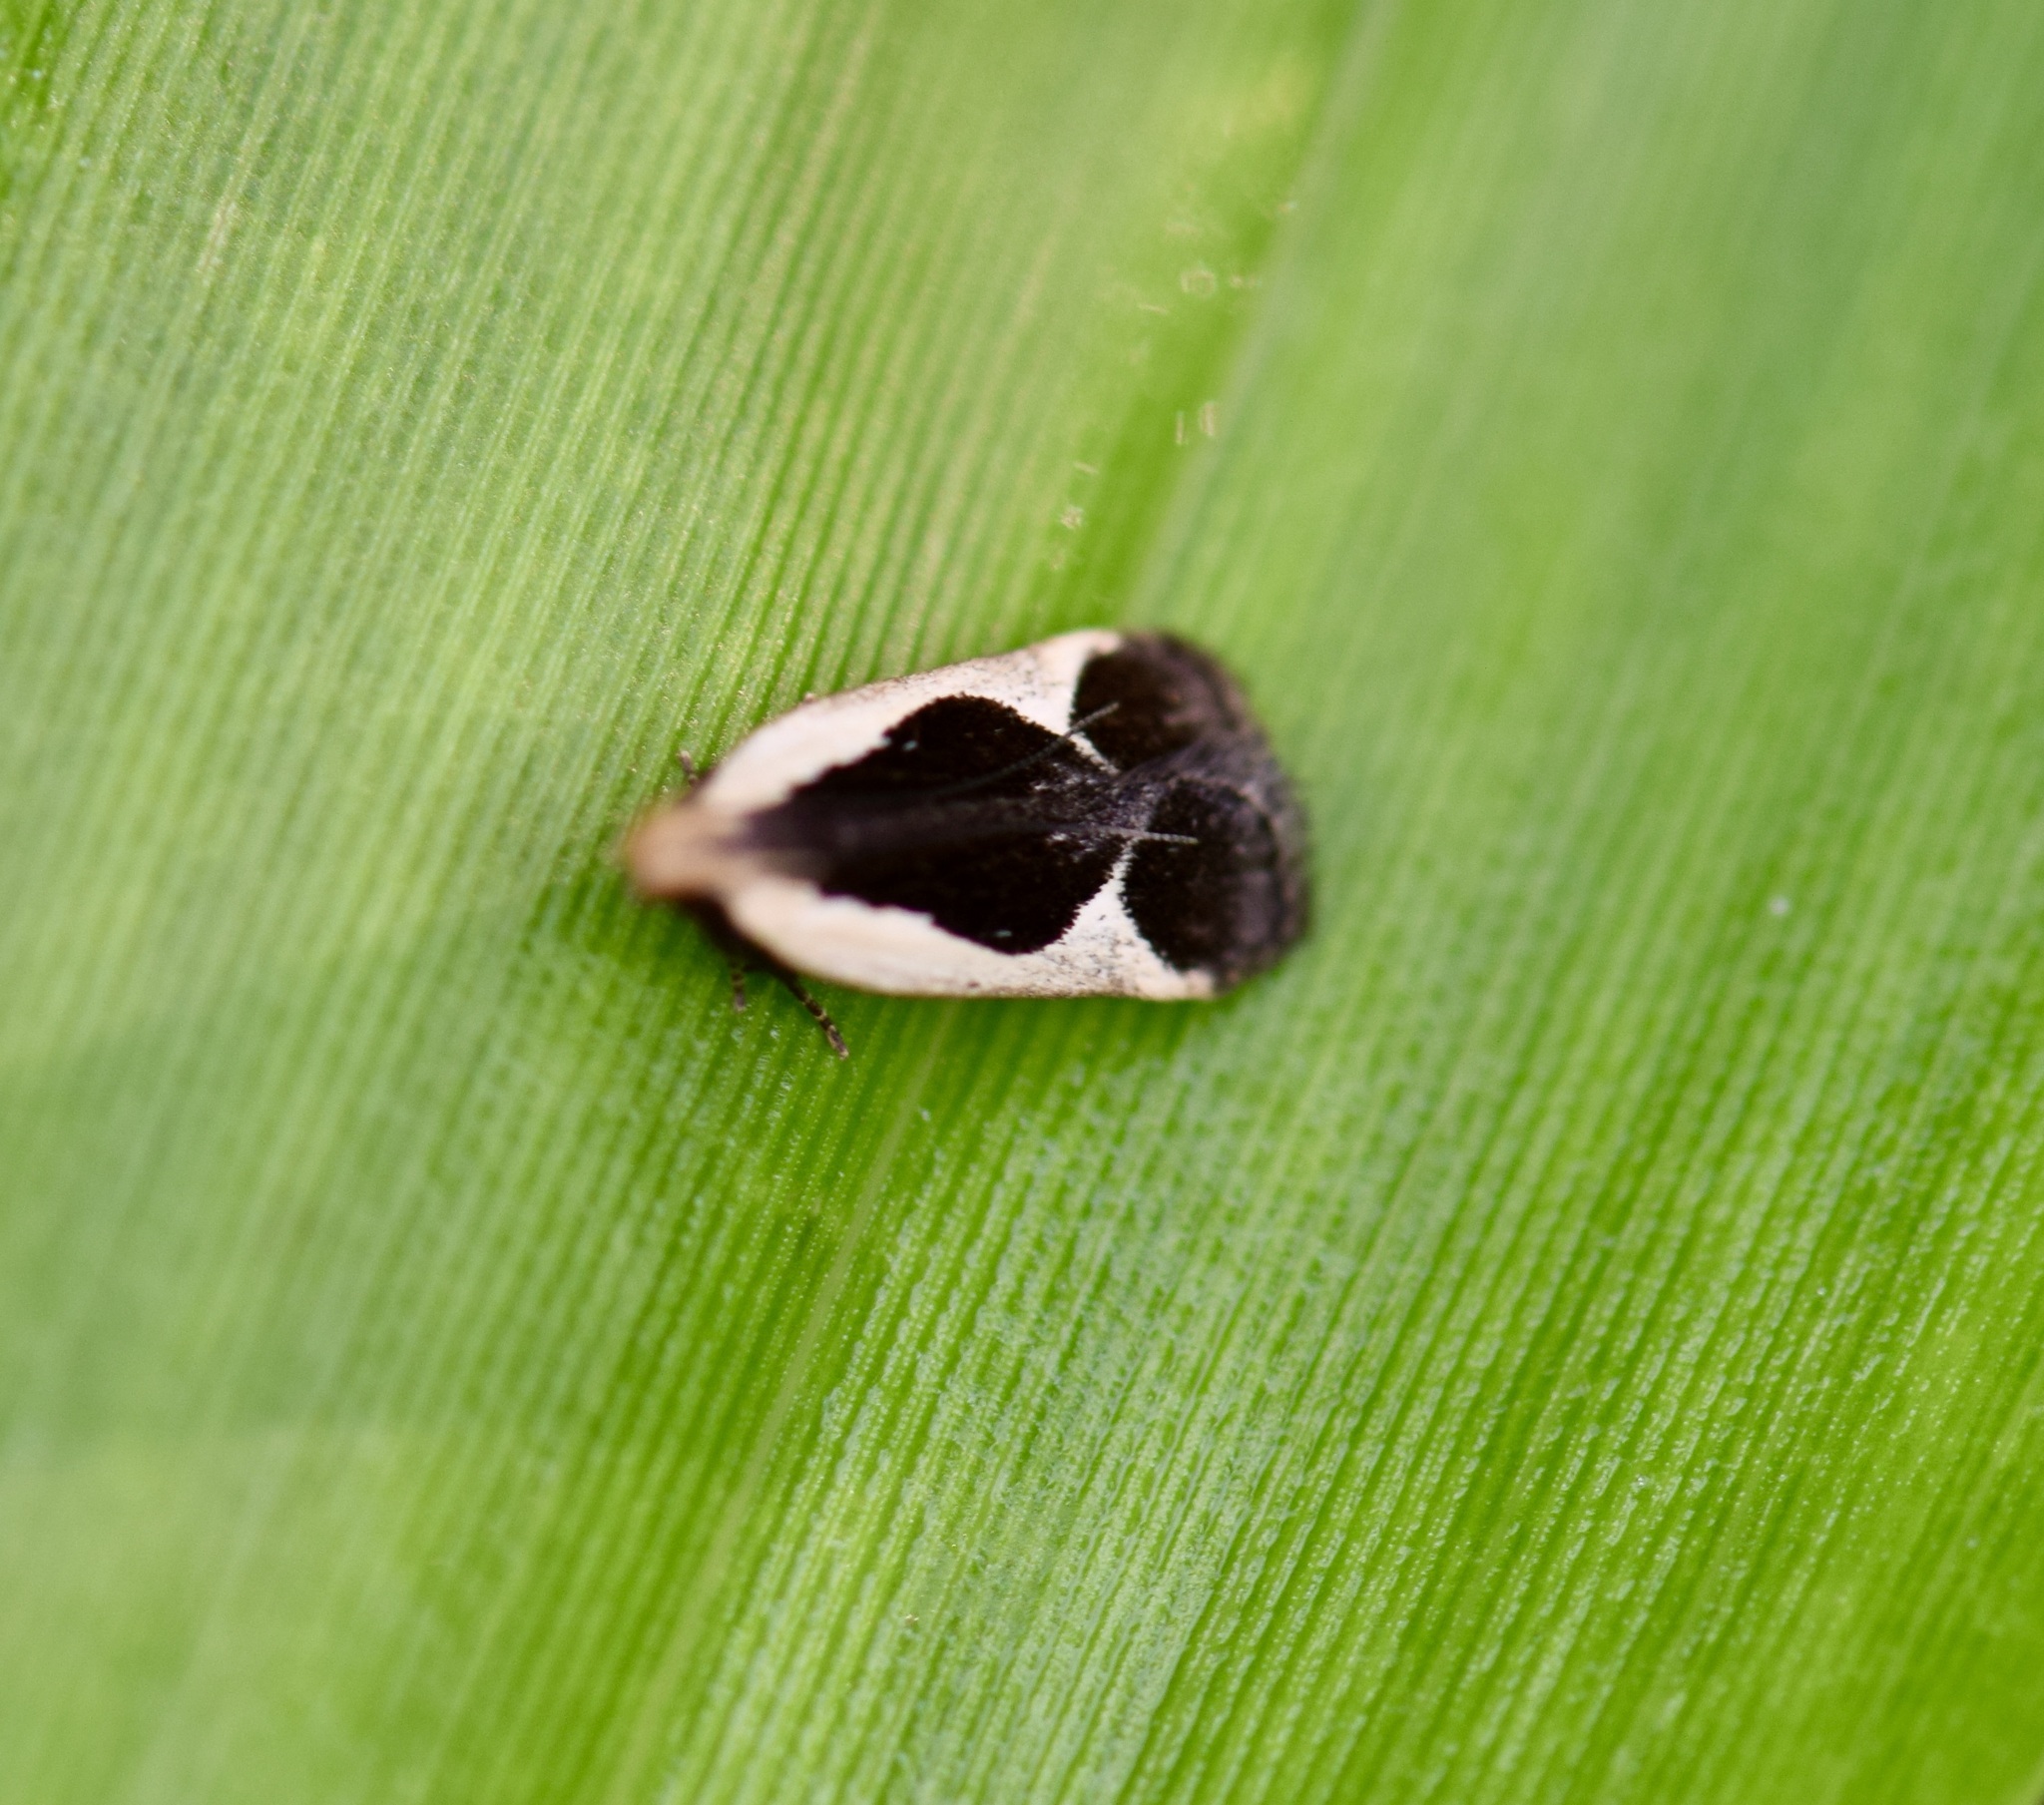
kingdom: Animalia
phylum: Arthropoda
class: Insecta
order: Lepidoptera
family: Gelechiidae
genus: Dichomeris
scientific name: Dichomeris flavocostella
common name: Cream-edged dichomeris moth
